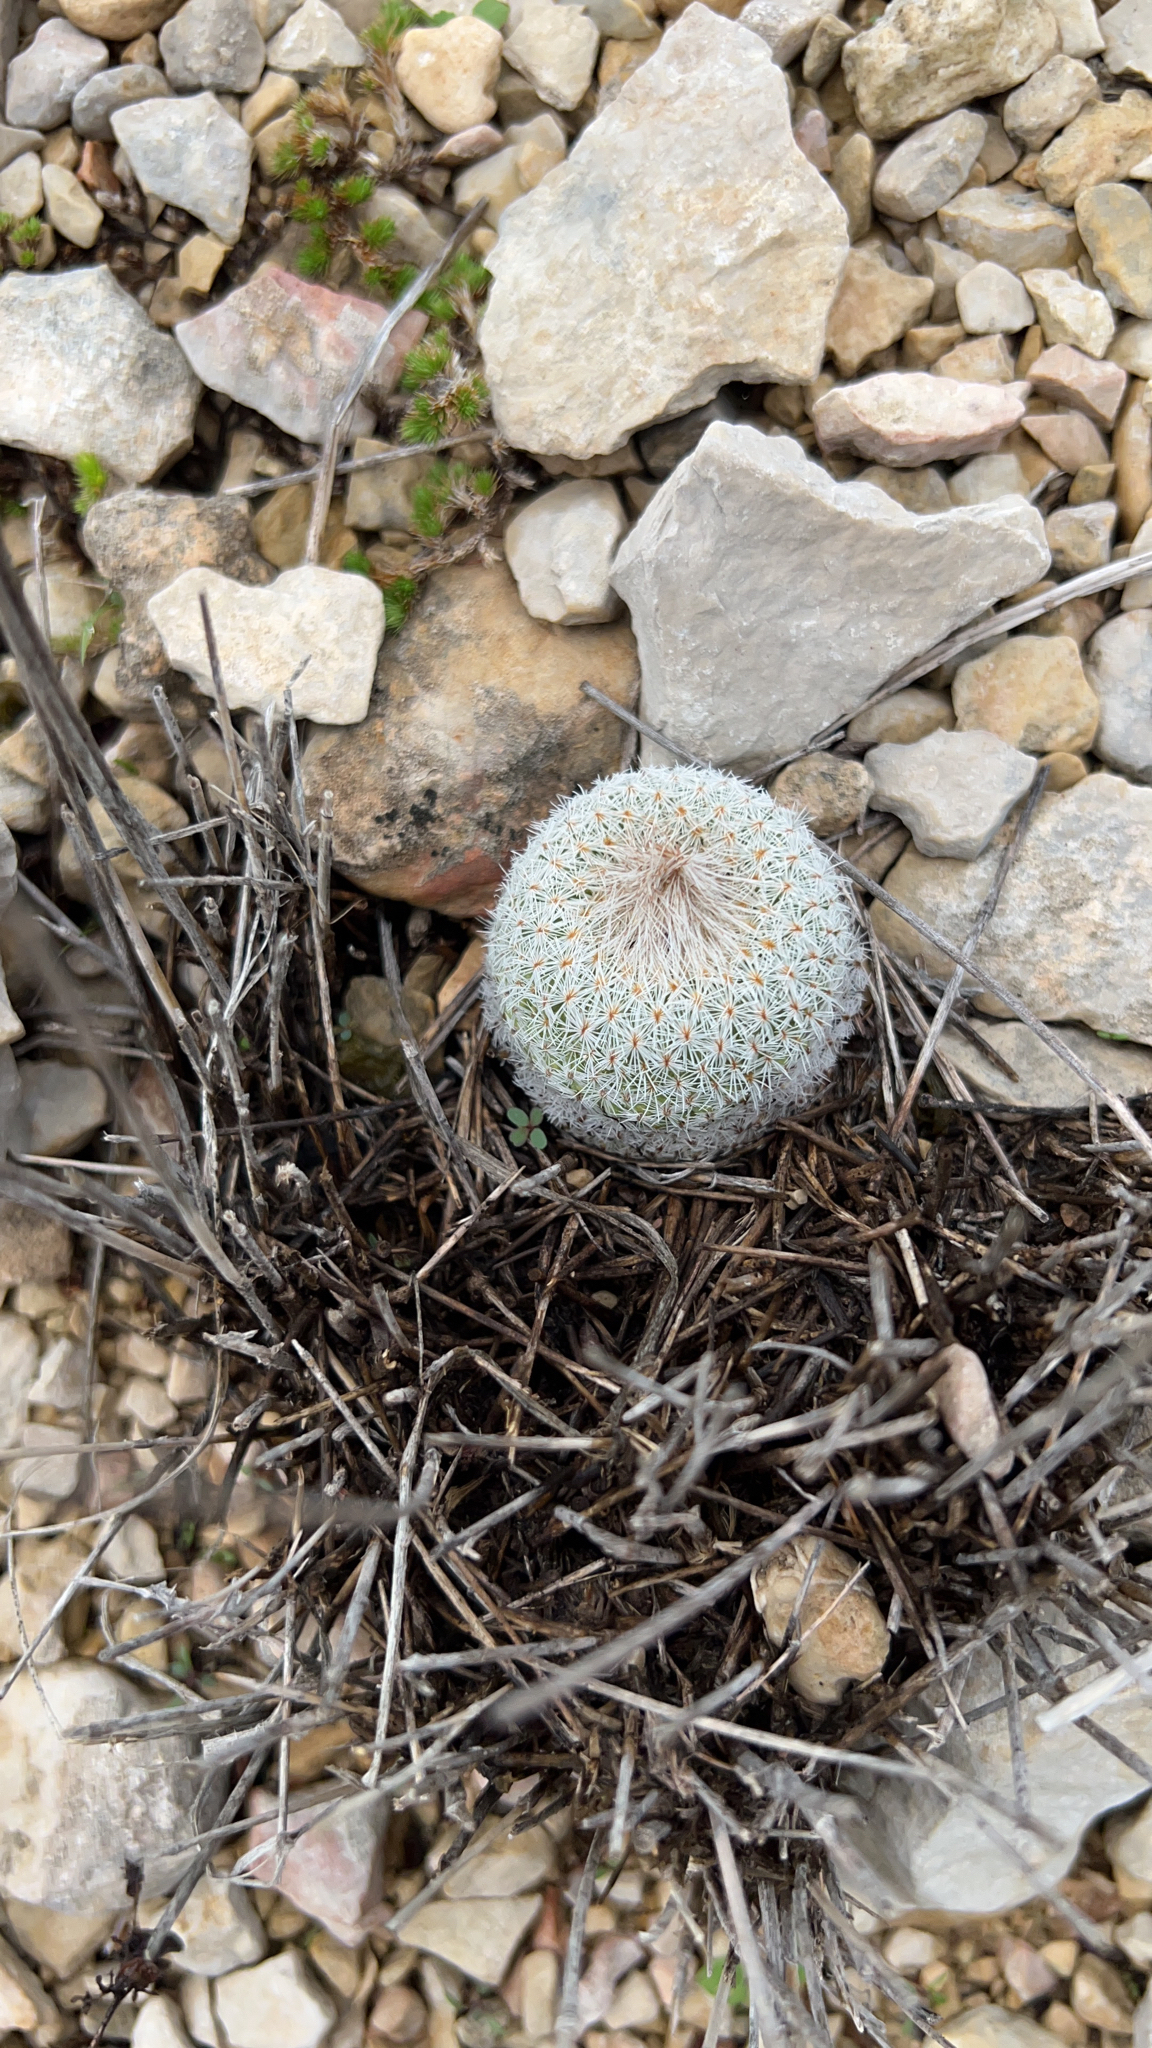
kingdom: Plantae
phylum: Tracheophyta
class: Magnoliopsida
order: Caryophyllales
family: Cactaceae
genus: Epithelantha
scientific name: Epithelantha micromeris
